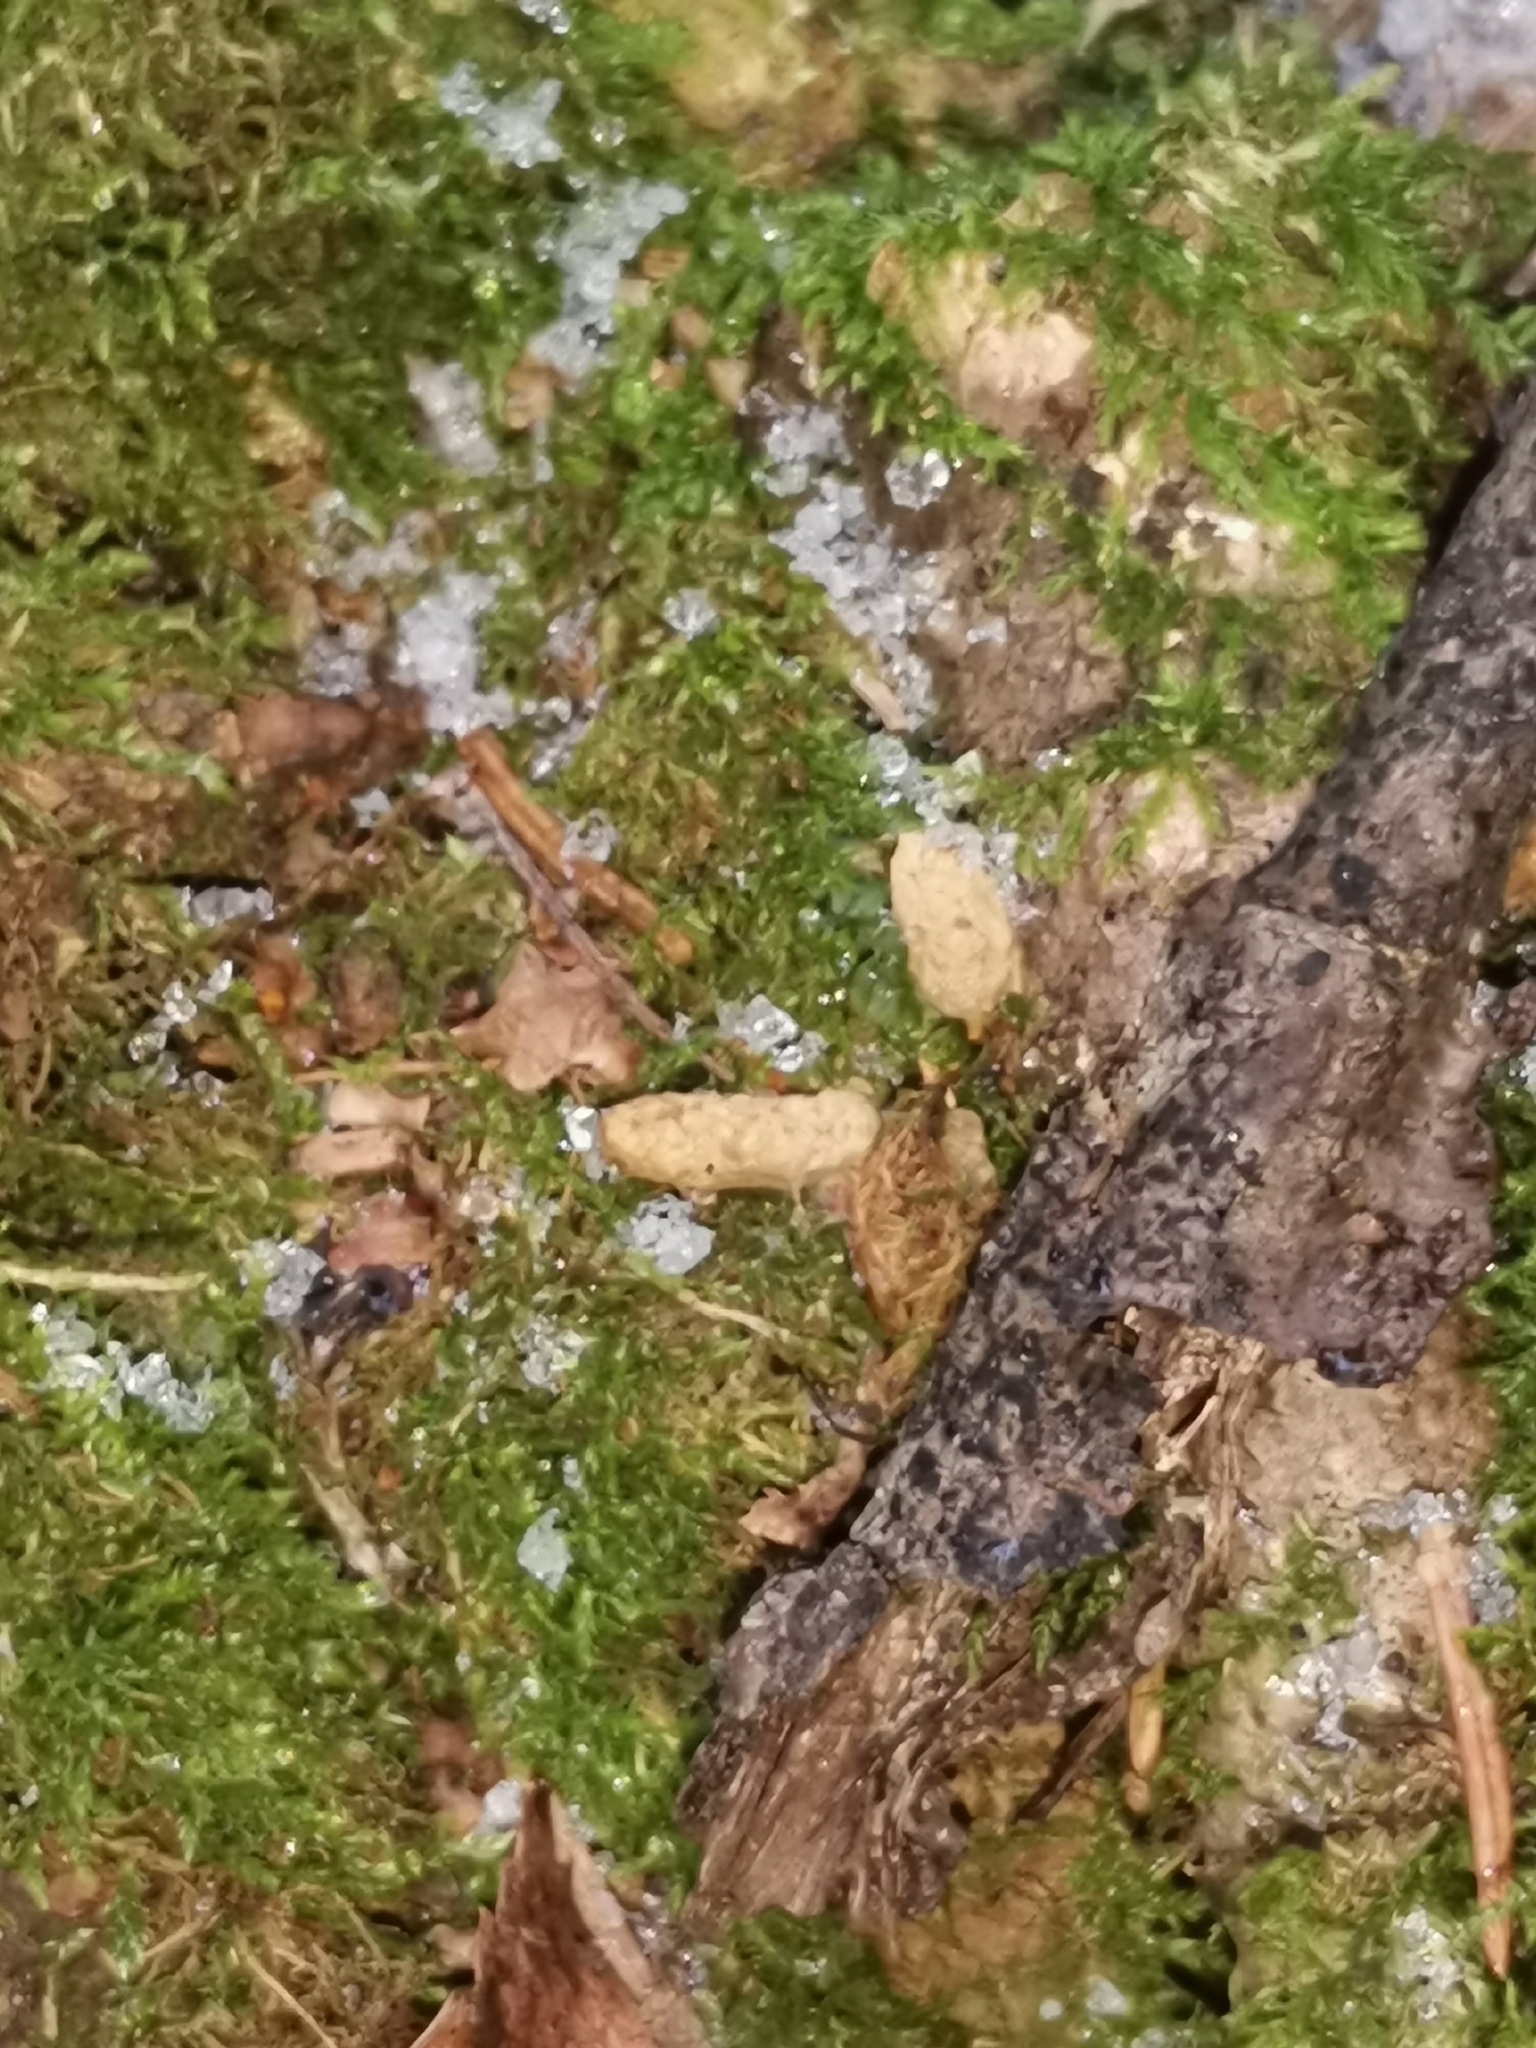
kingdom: Animalia
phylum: Chordata
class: Mammalia
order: Rodentia
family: Sciuridae
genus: Pteromys
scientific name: Pteromys volans
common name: Siberian flying squirrel
